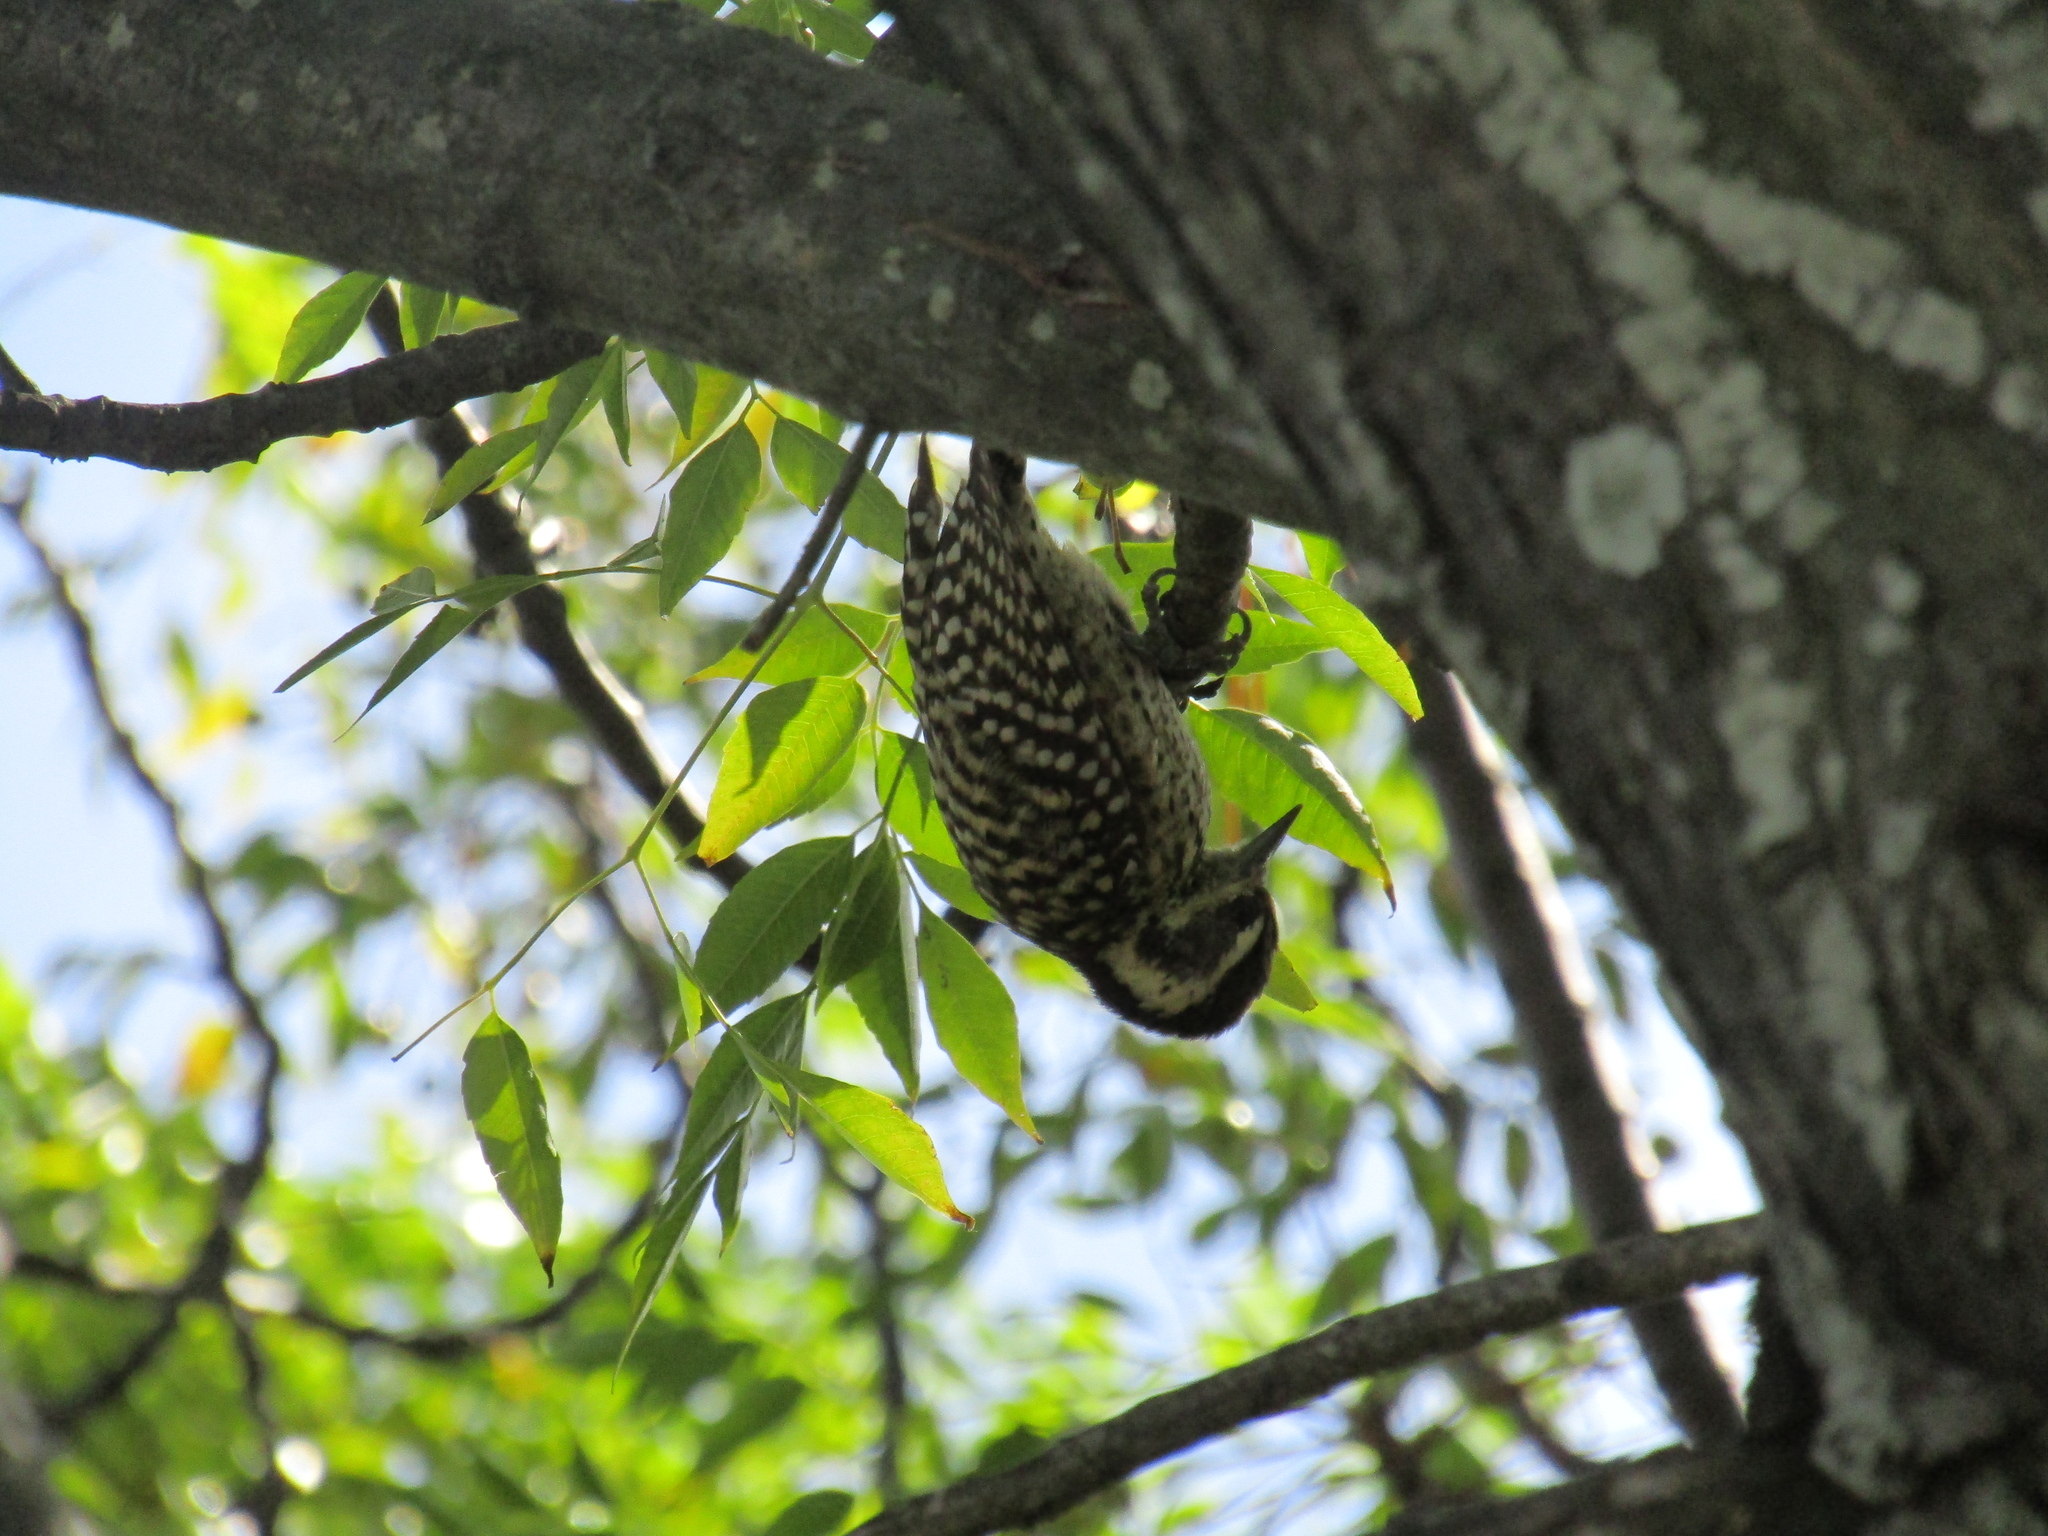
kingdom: Animalia
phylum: Chordata
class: Aves
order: Piciformes
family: Picidae
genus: Veniliornis
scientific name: Veniliornis mixtus
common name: Checkered woodpecker
